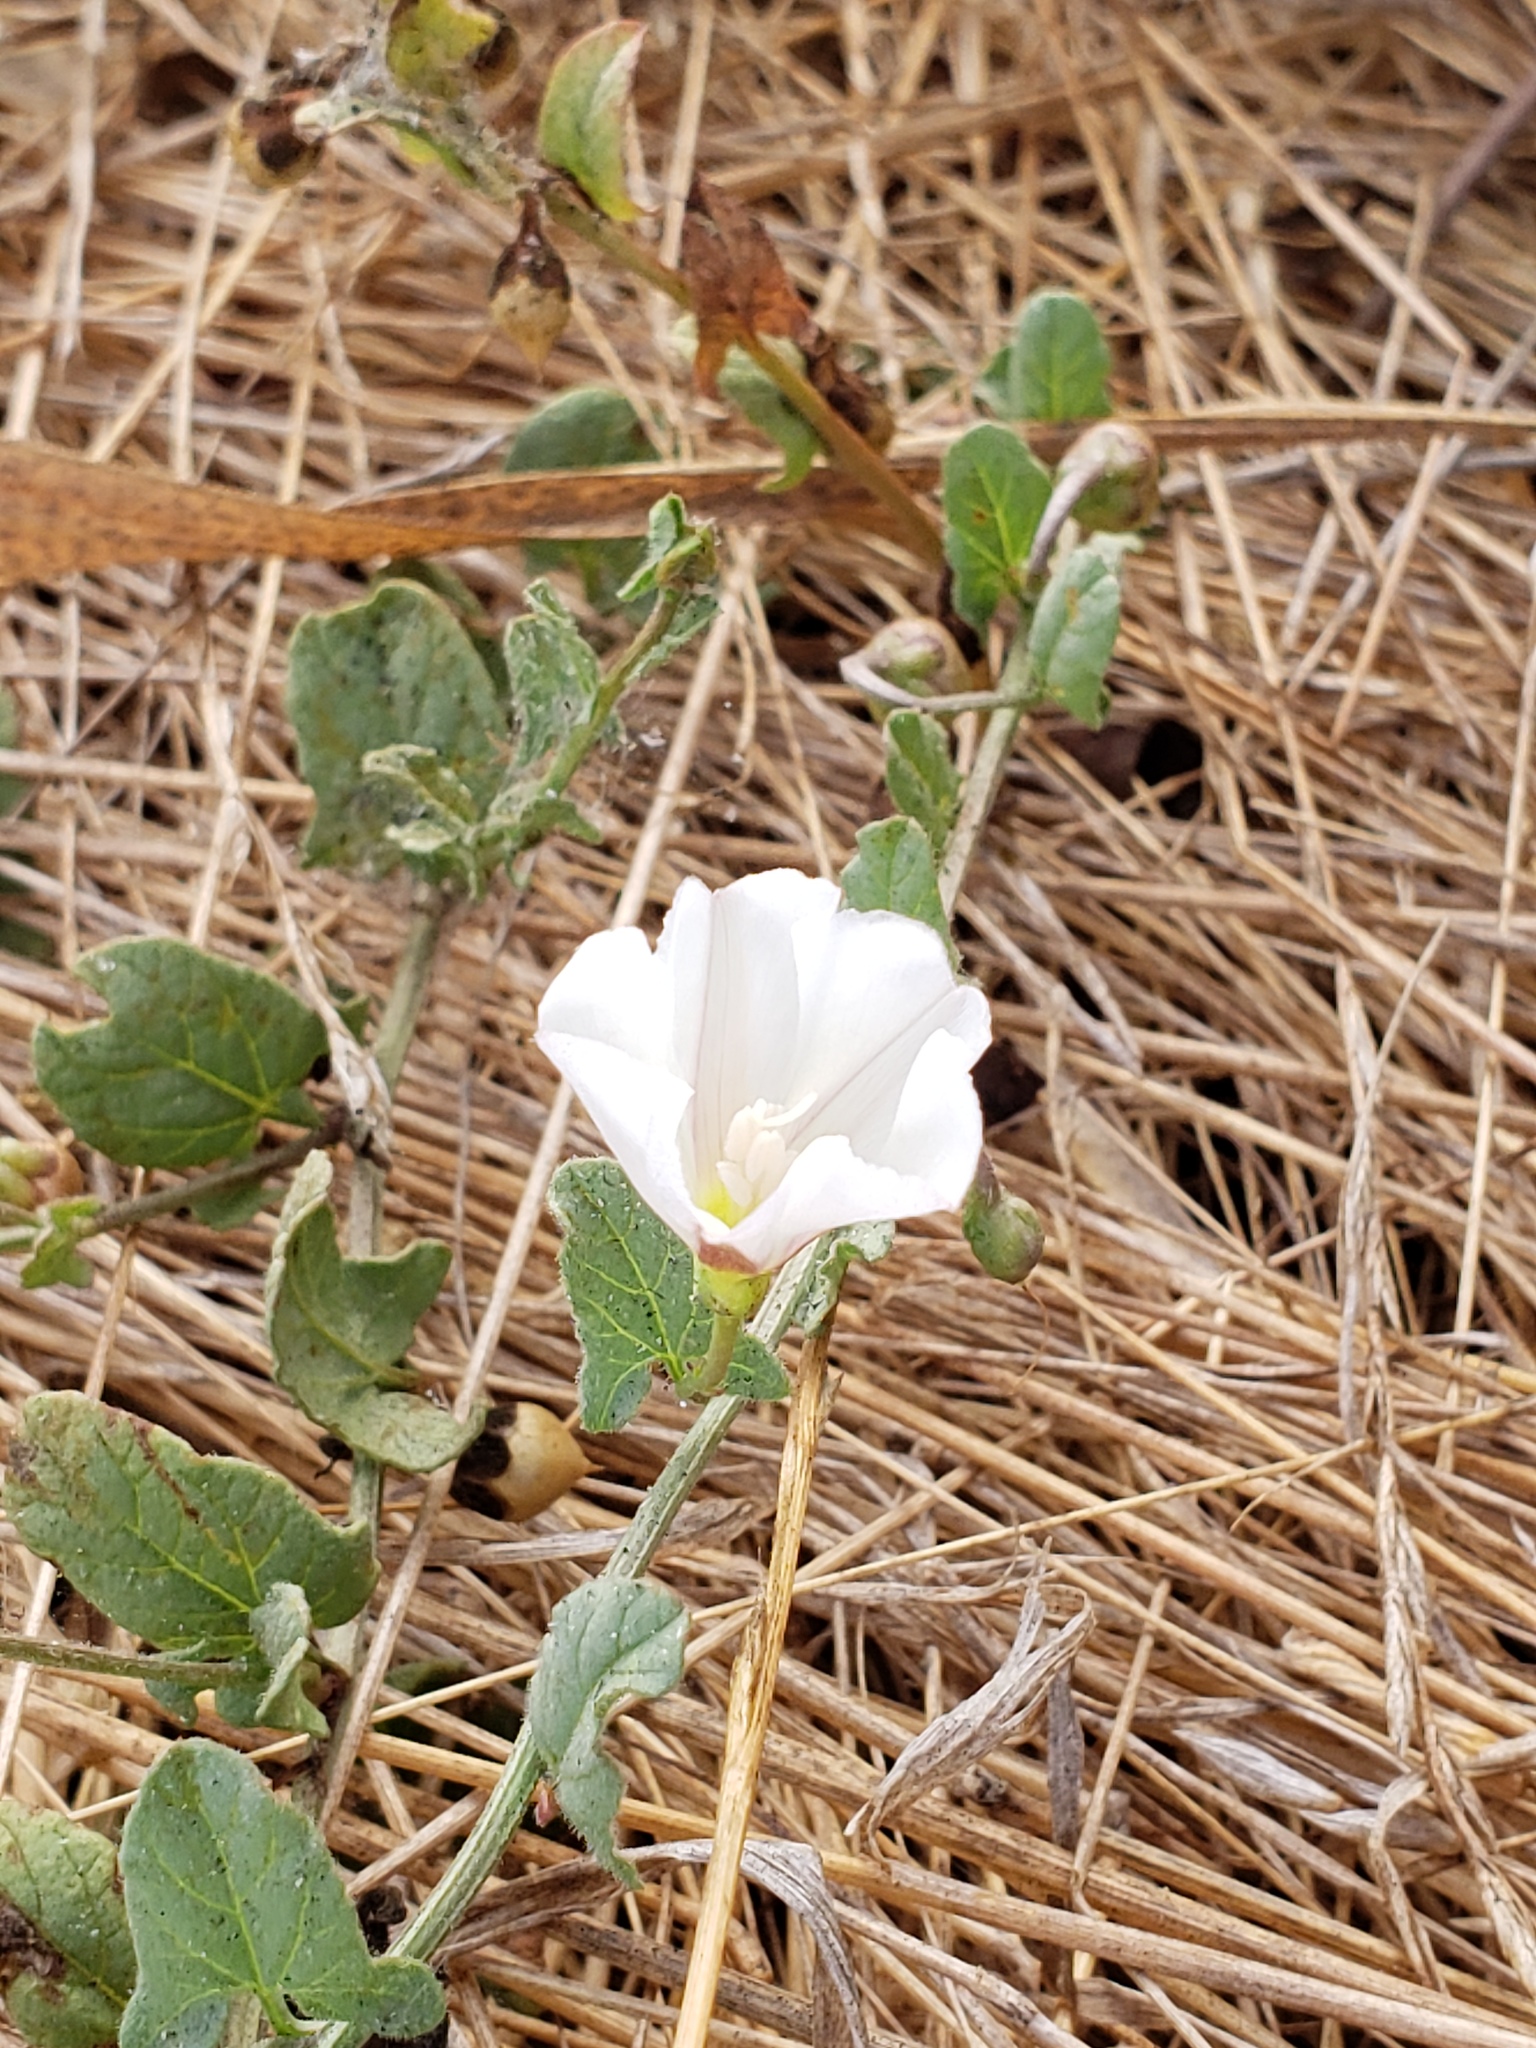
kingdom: Plantae
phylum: Tracheophyta
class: Magnoliopsida
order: Solanales
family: Convolvulaceae
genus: Convolvulus
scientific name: Convolvulus arvensis
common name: Field bindweed
